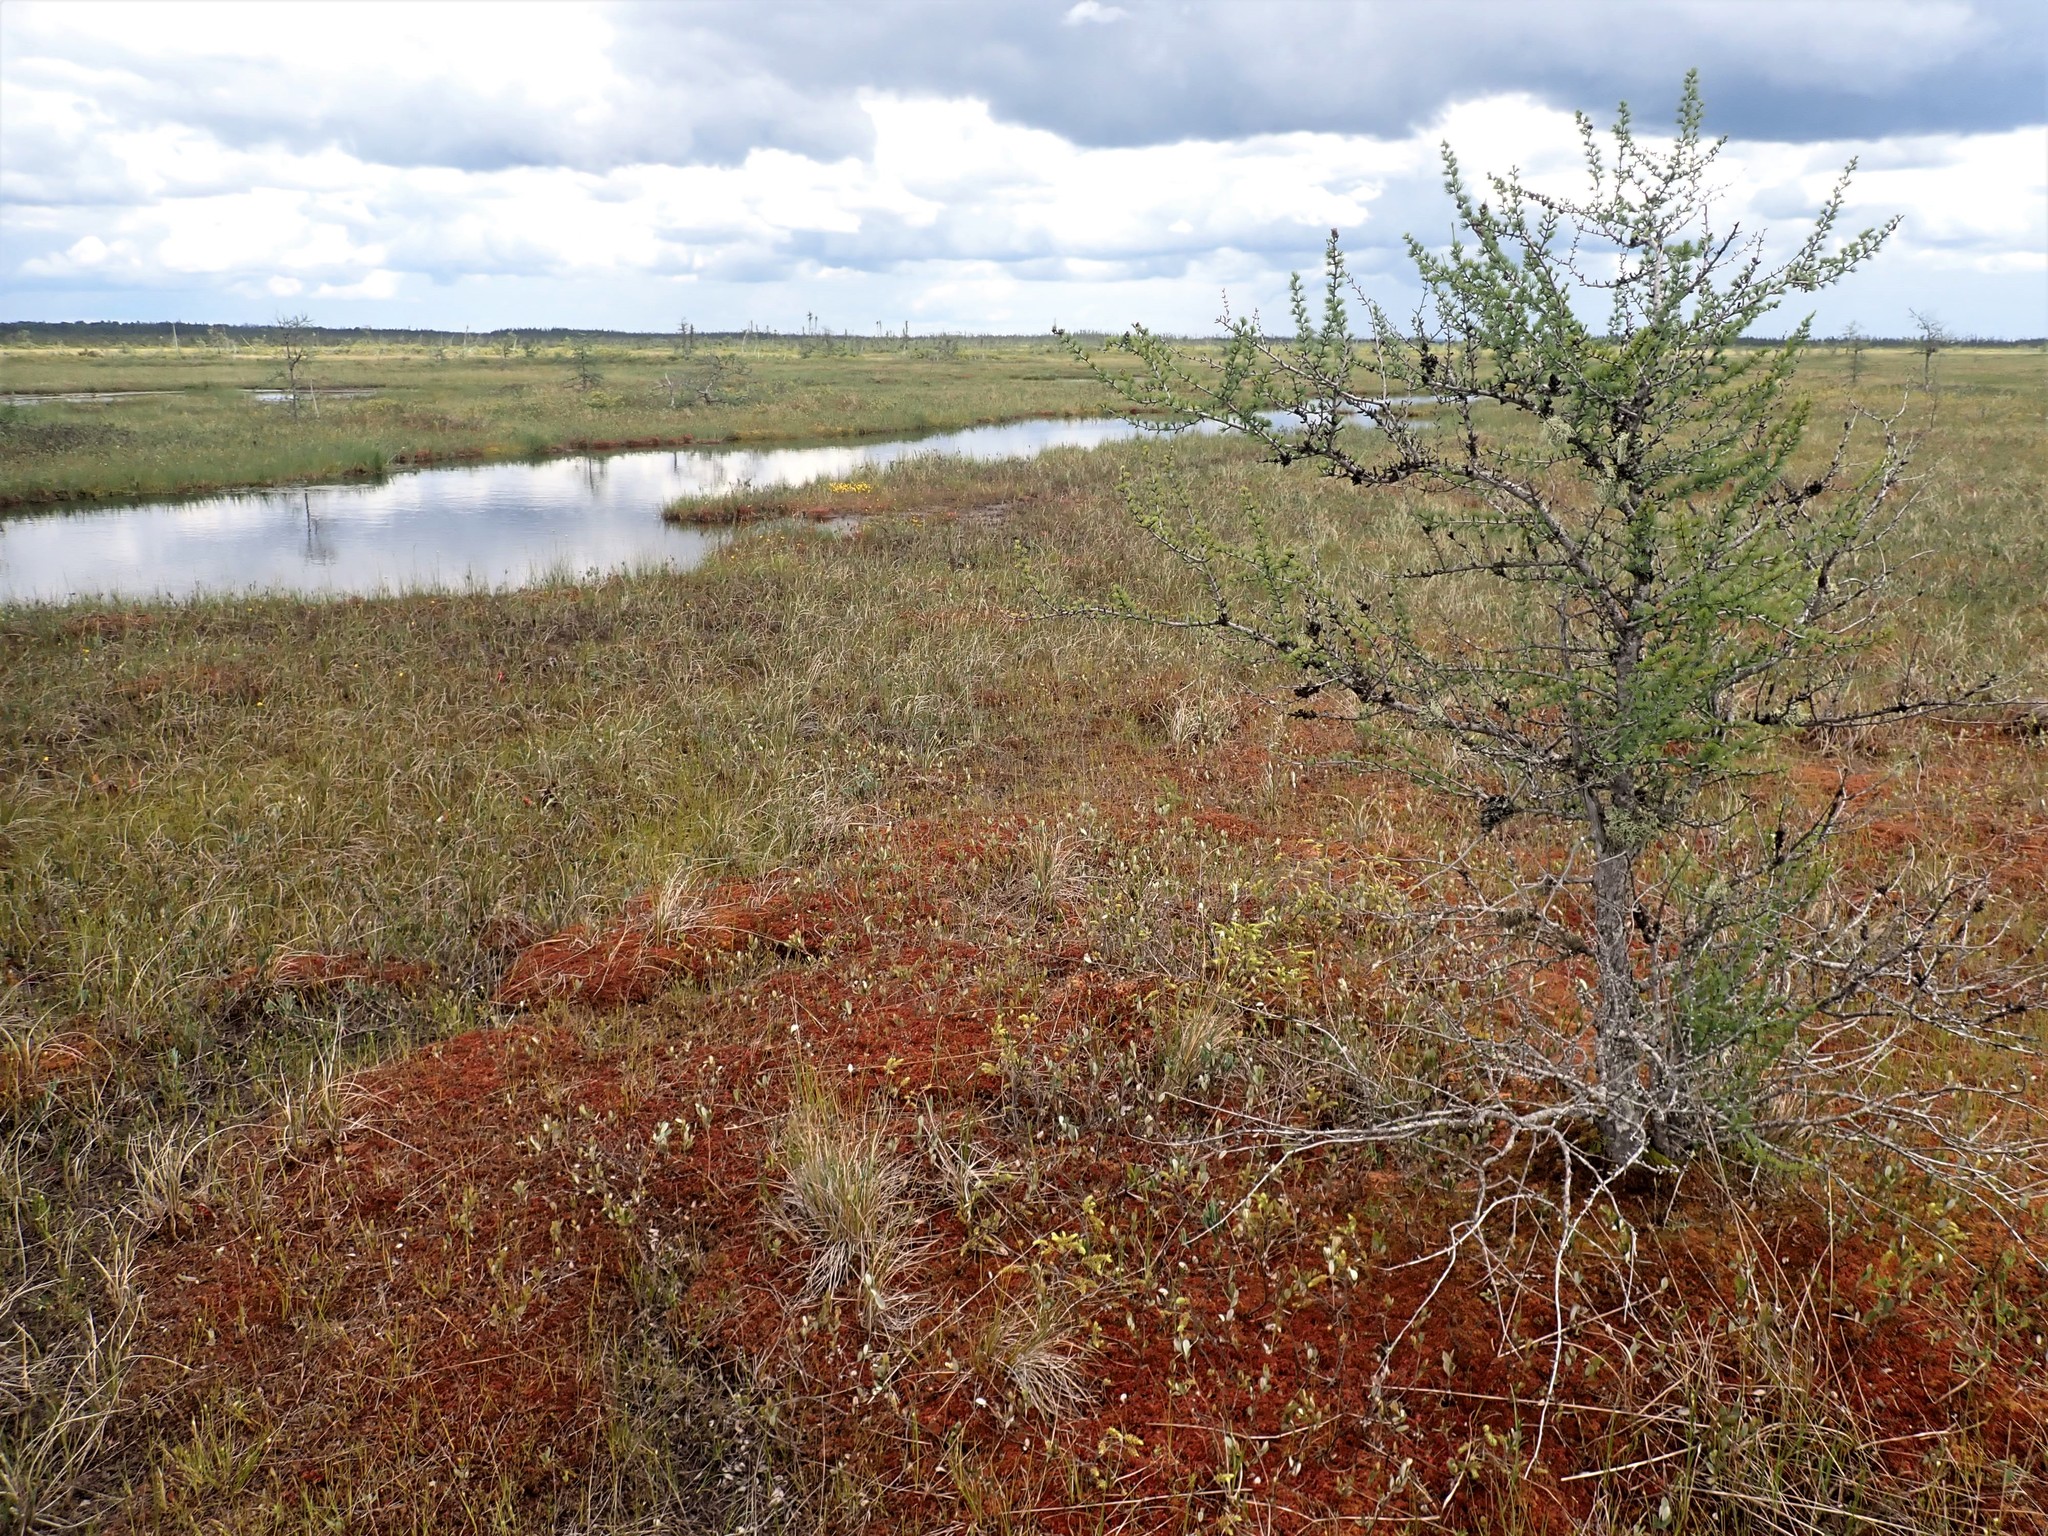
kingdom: Plantae
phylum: Tracheophyta
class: Pinopsida
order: Pinales
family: Pinaceae
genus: Larix
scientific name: Larix laricina
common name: American larch
